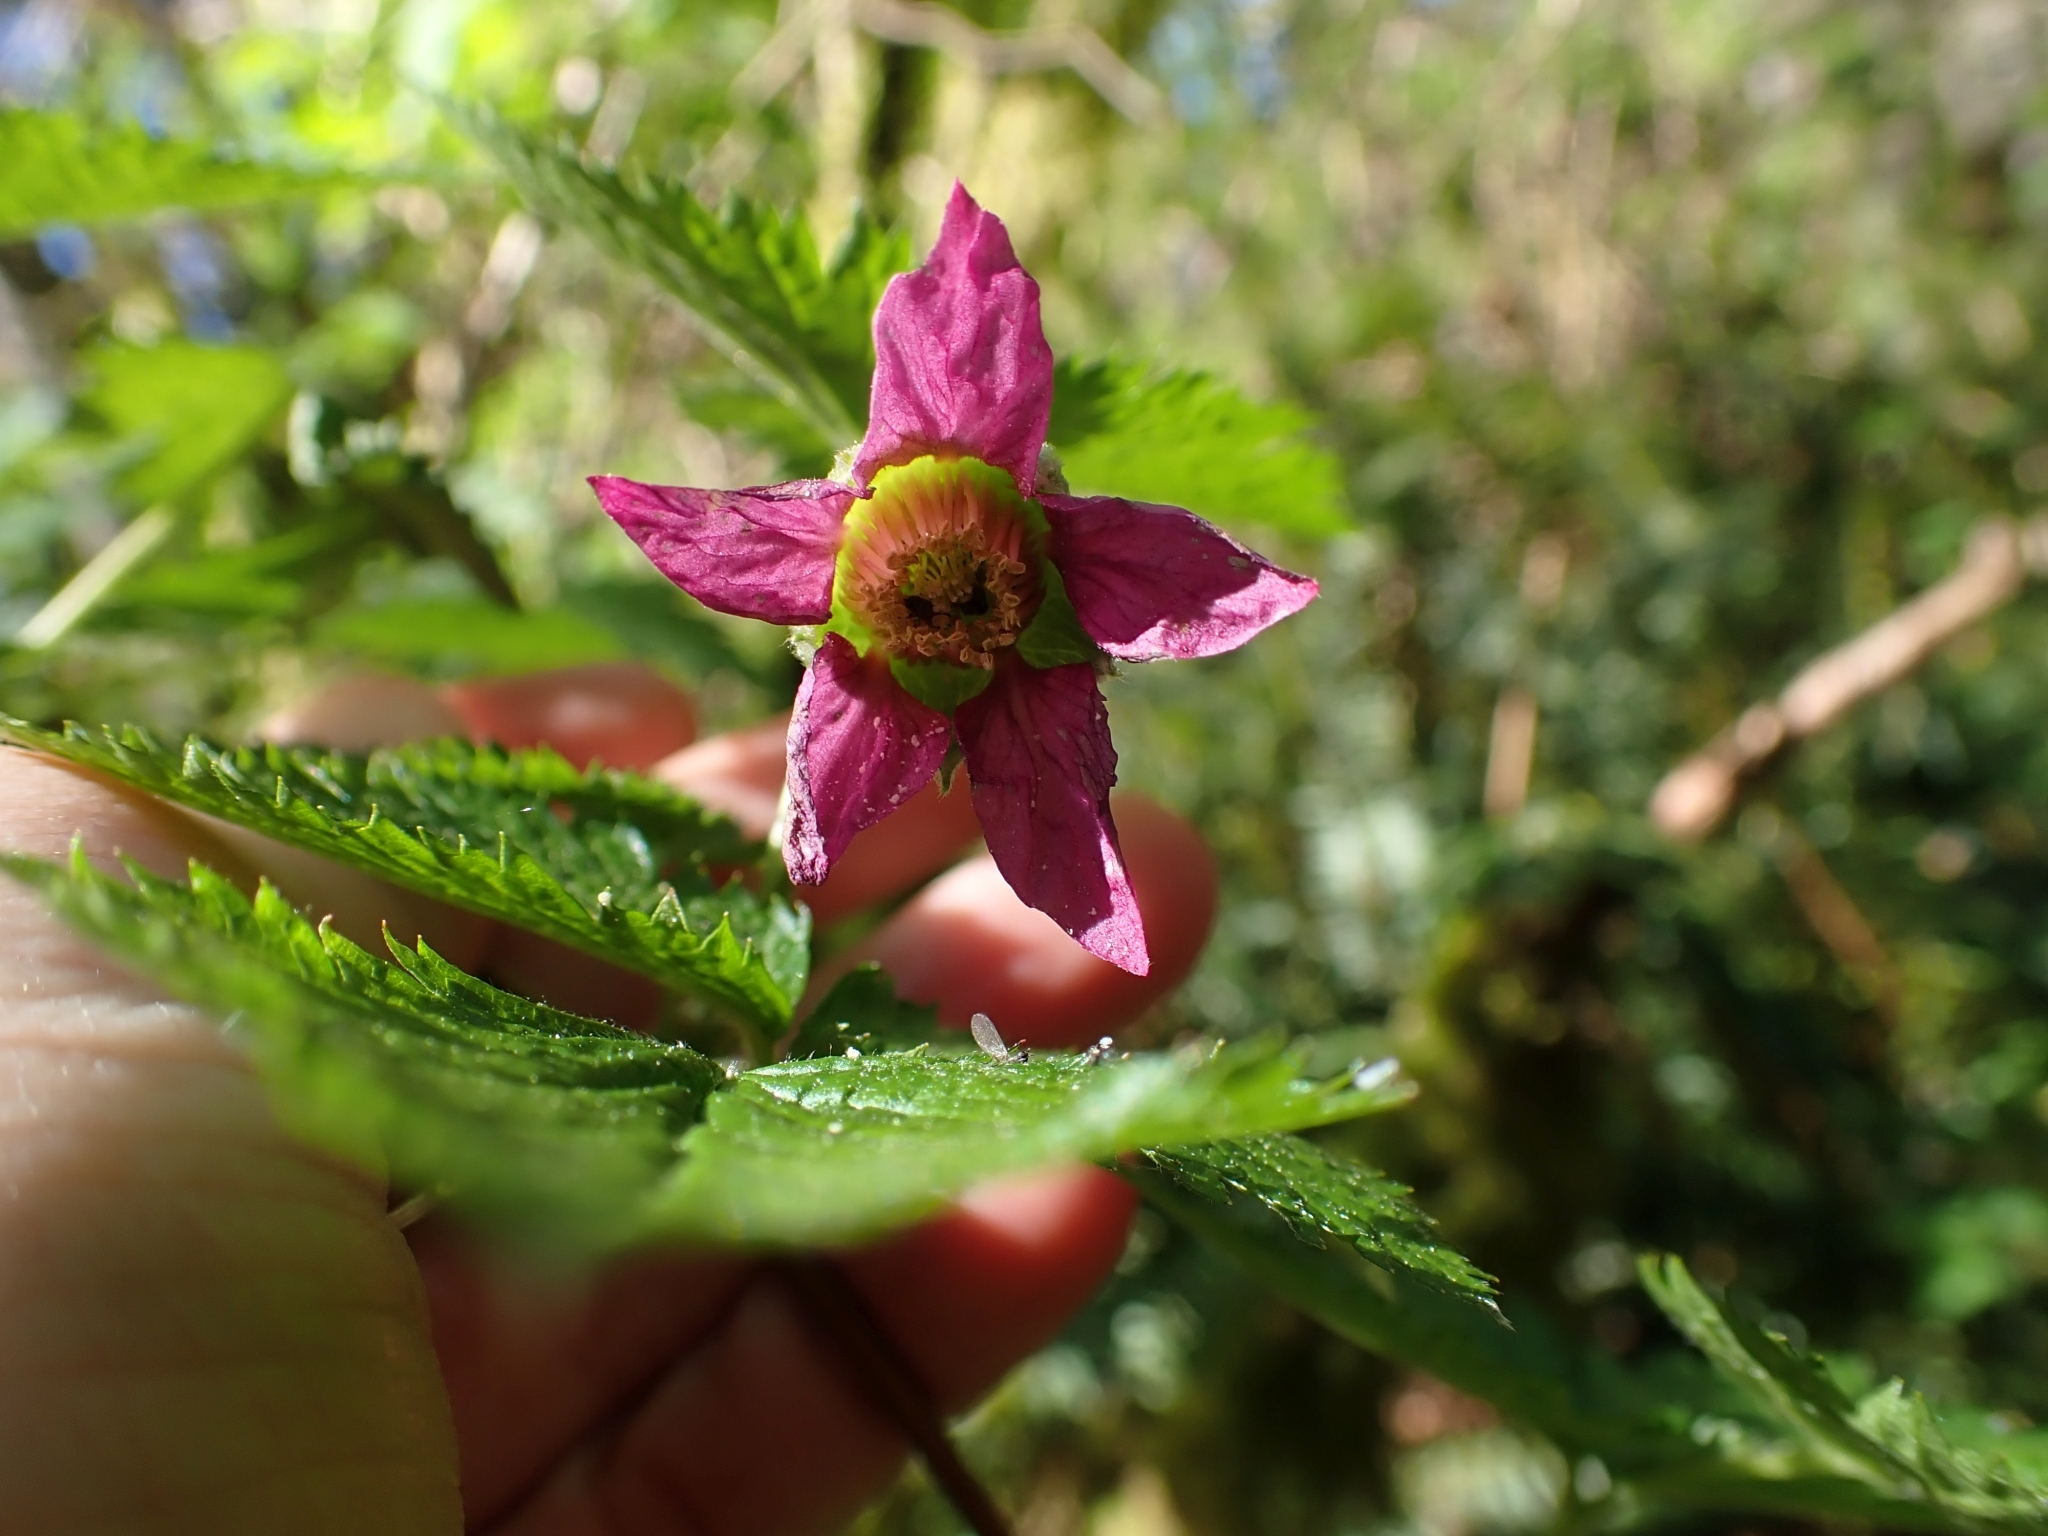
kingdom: Plantae
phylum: Tracheophyta
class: Magnoliopsida
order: Rosales
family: Rosaceae
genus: Rubus
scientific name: Rubus spectabilis
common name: Salmonberry
